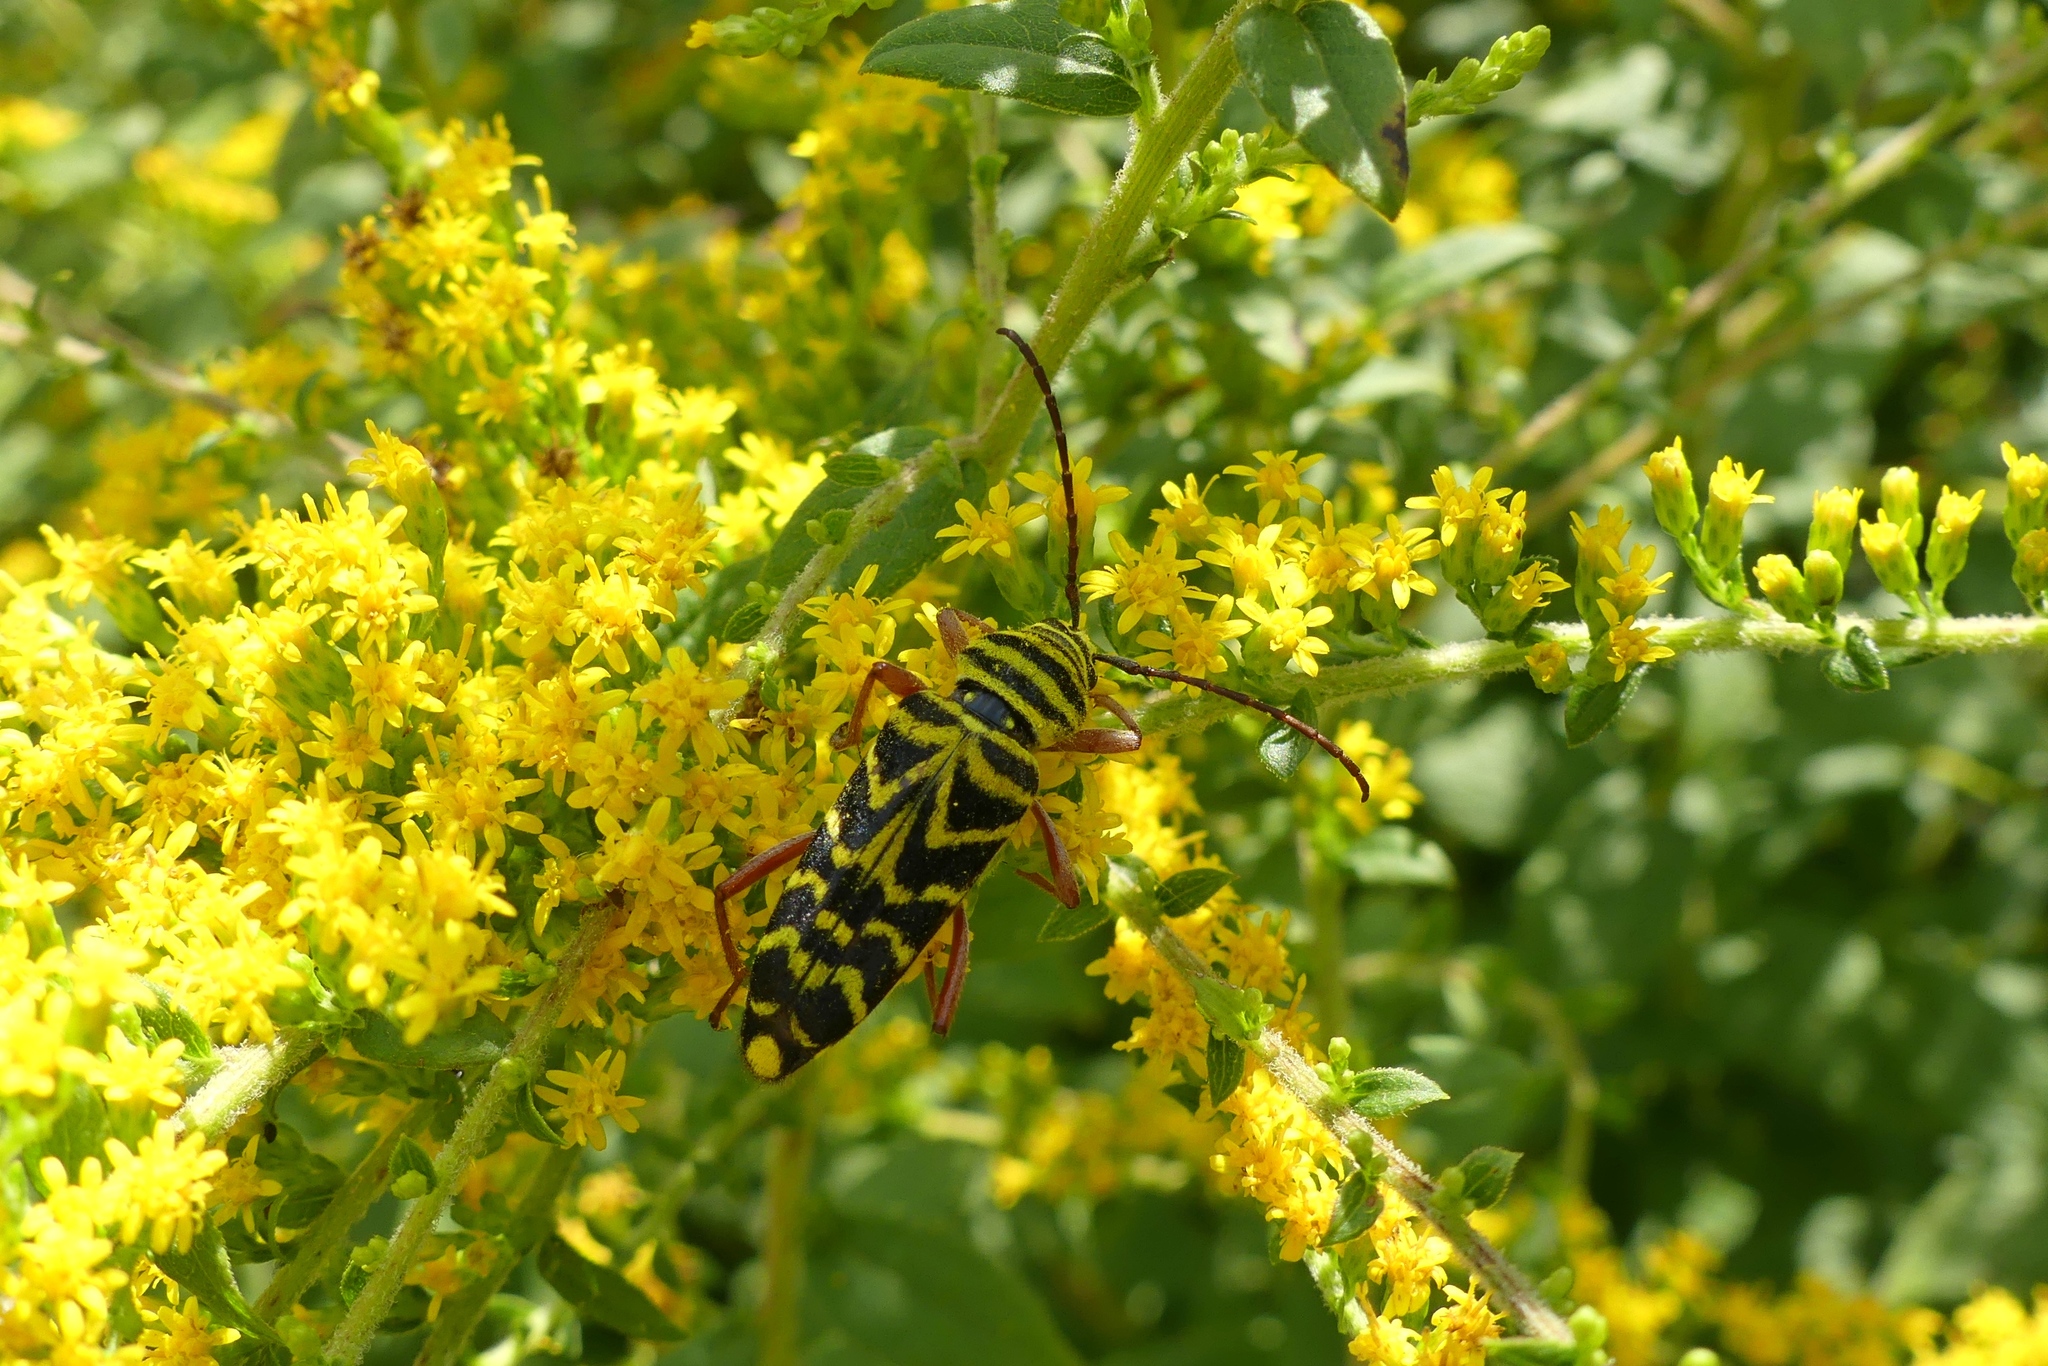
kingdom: Animalia
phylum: Arthropoda
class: Insecta
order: Coleoptera
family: Cerambycidae
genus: Megacyllene
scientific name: Megacyllene robiniae
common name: Locust borer
